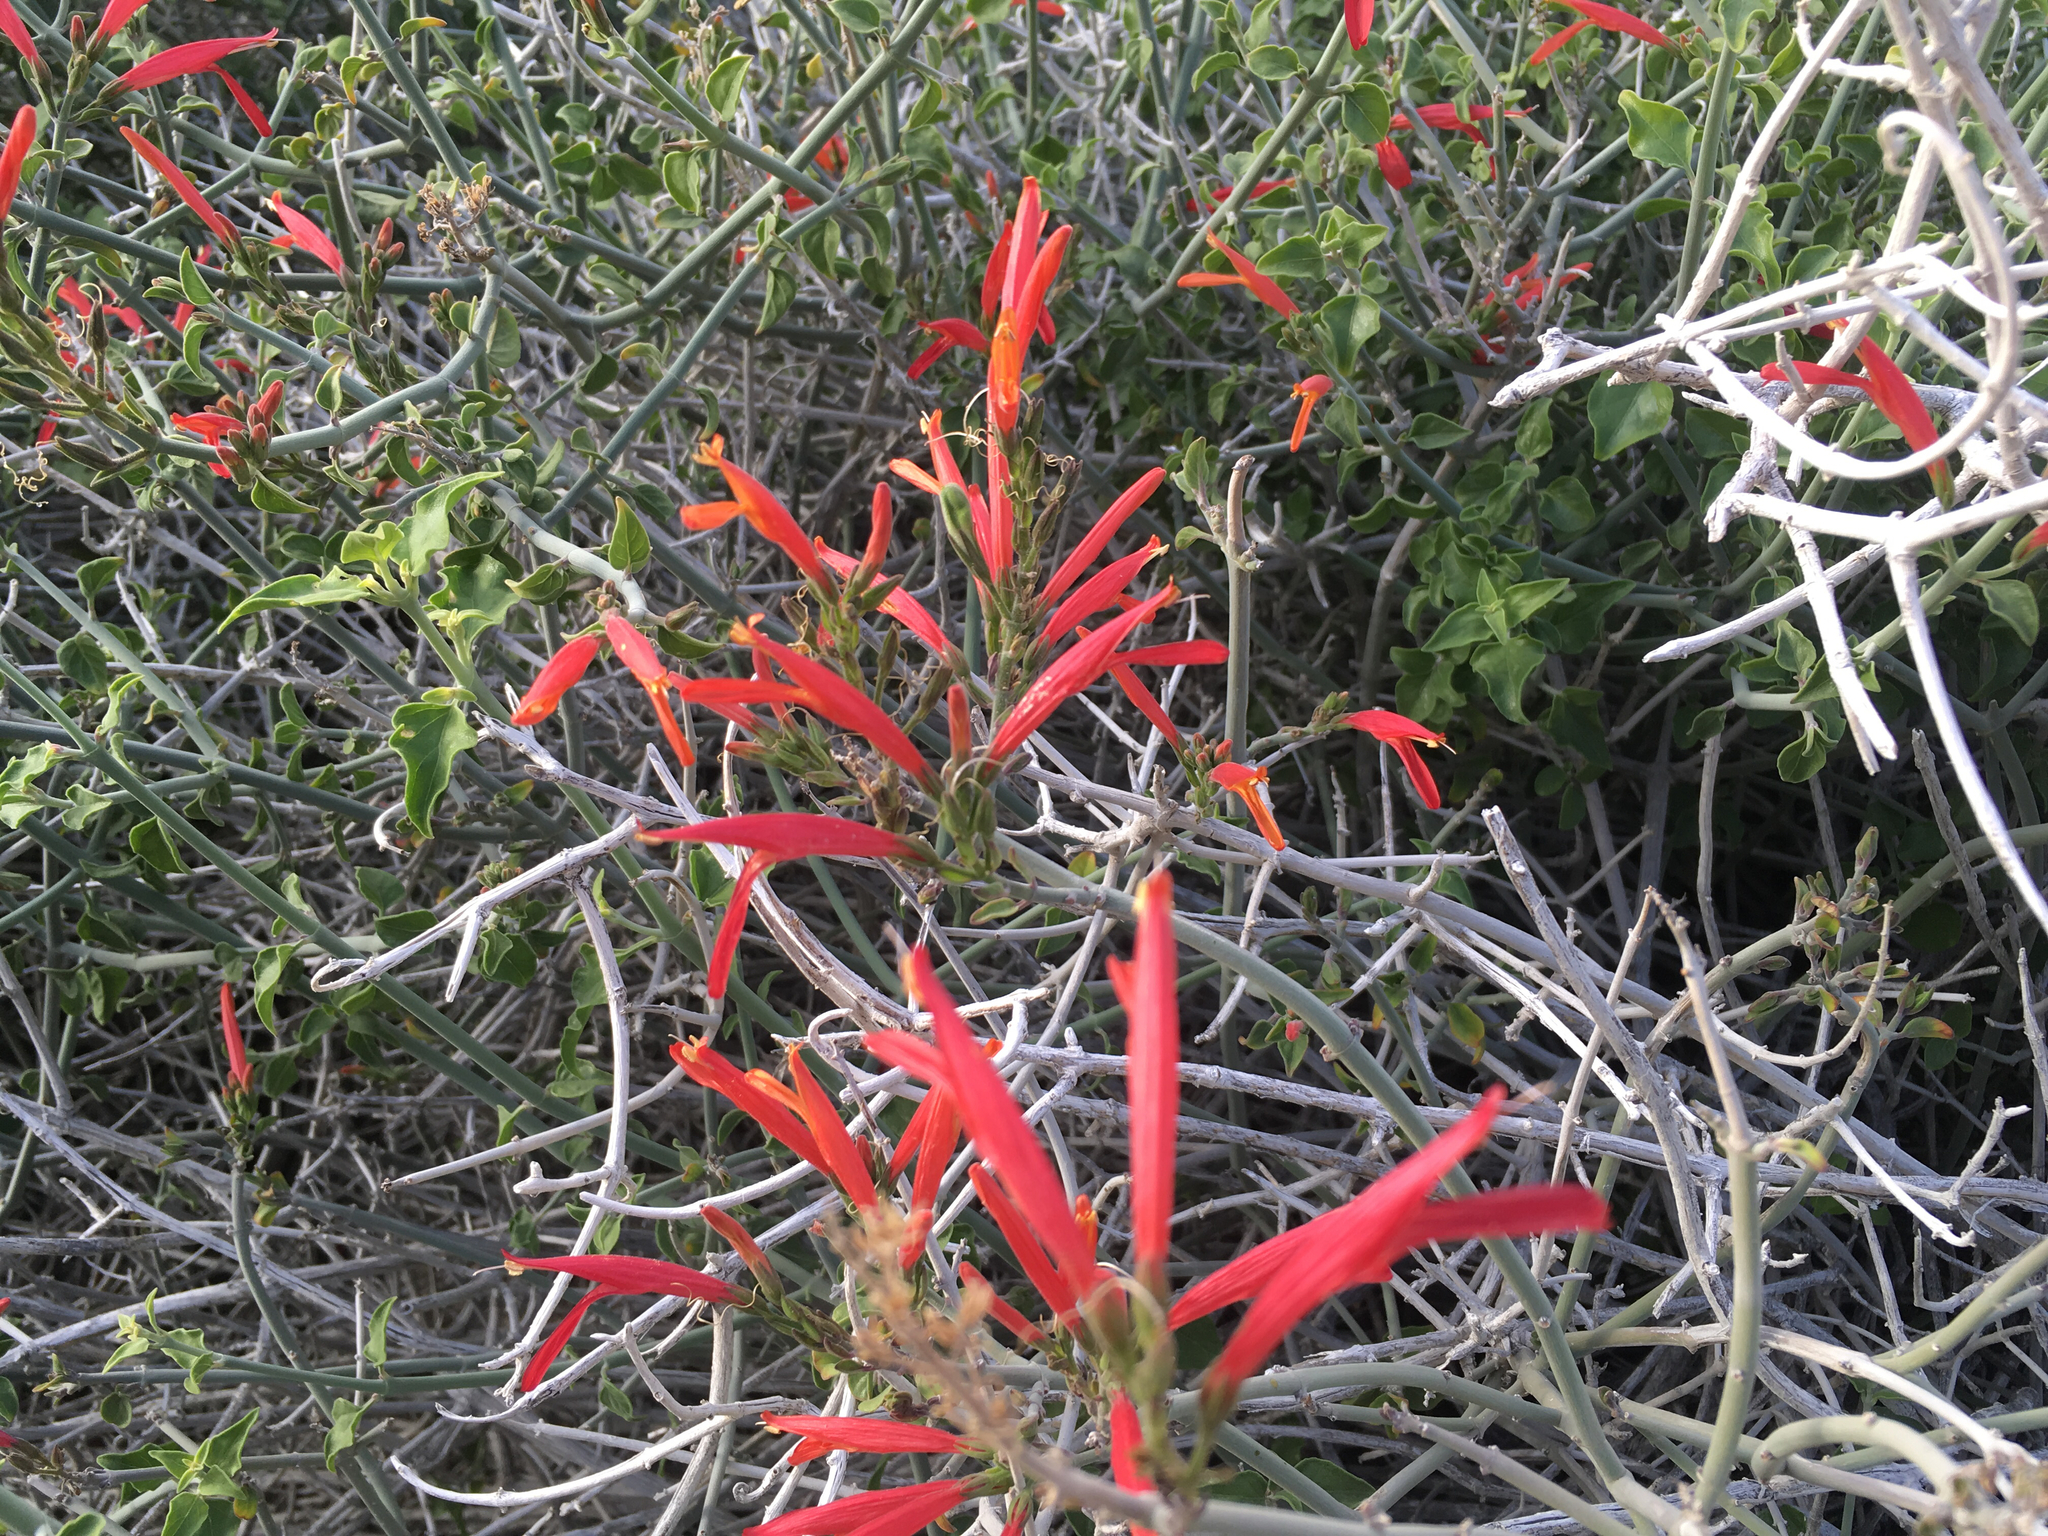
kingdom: Plantae
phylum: Tracheophyta
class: Magnoliopsida
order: Lamiales
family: Acanthaceae
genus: Justicia
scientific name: Justicia californica
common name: Chuparosa-honeysuckle
